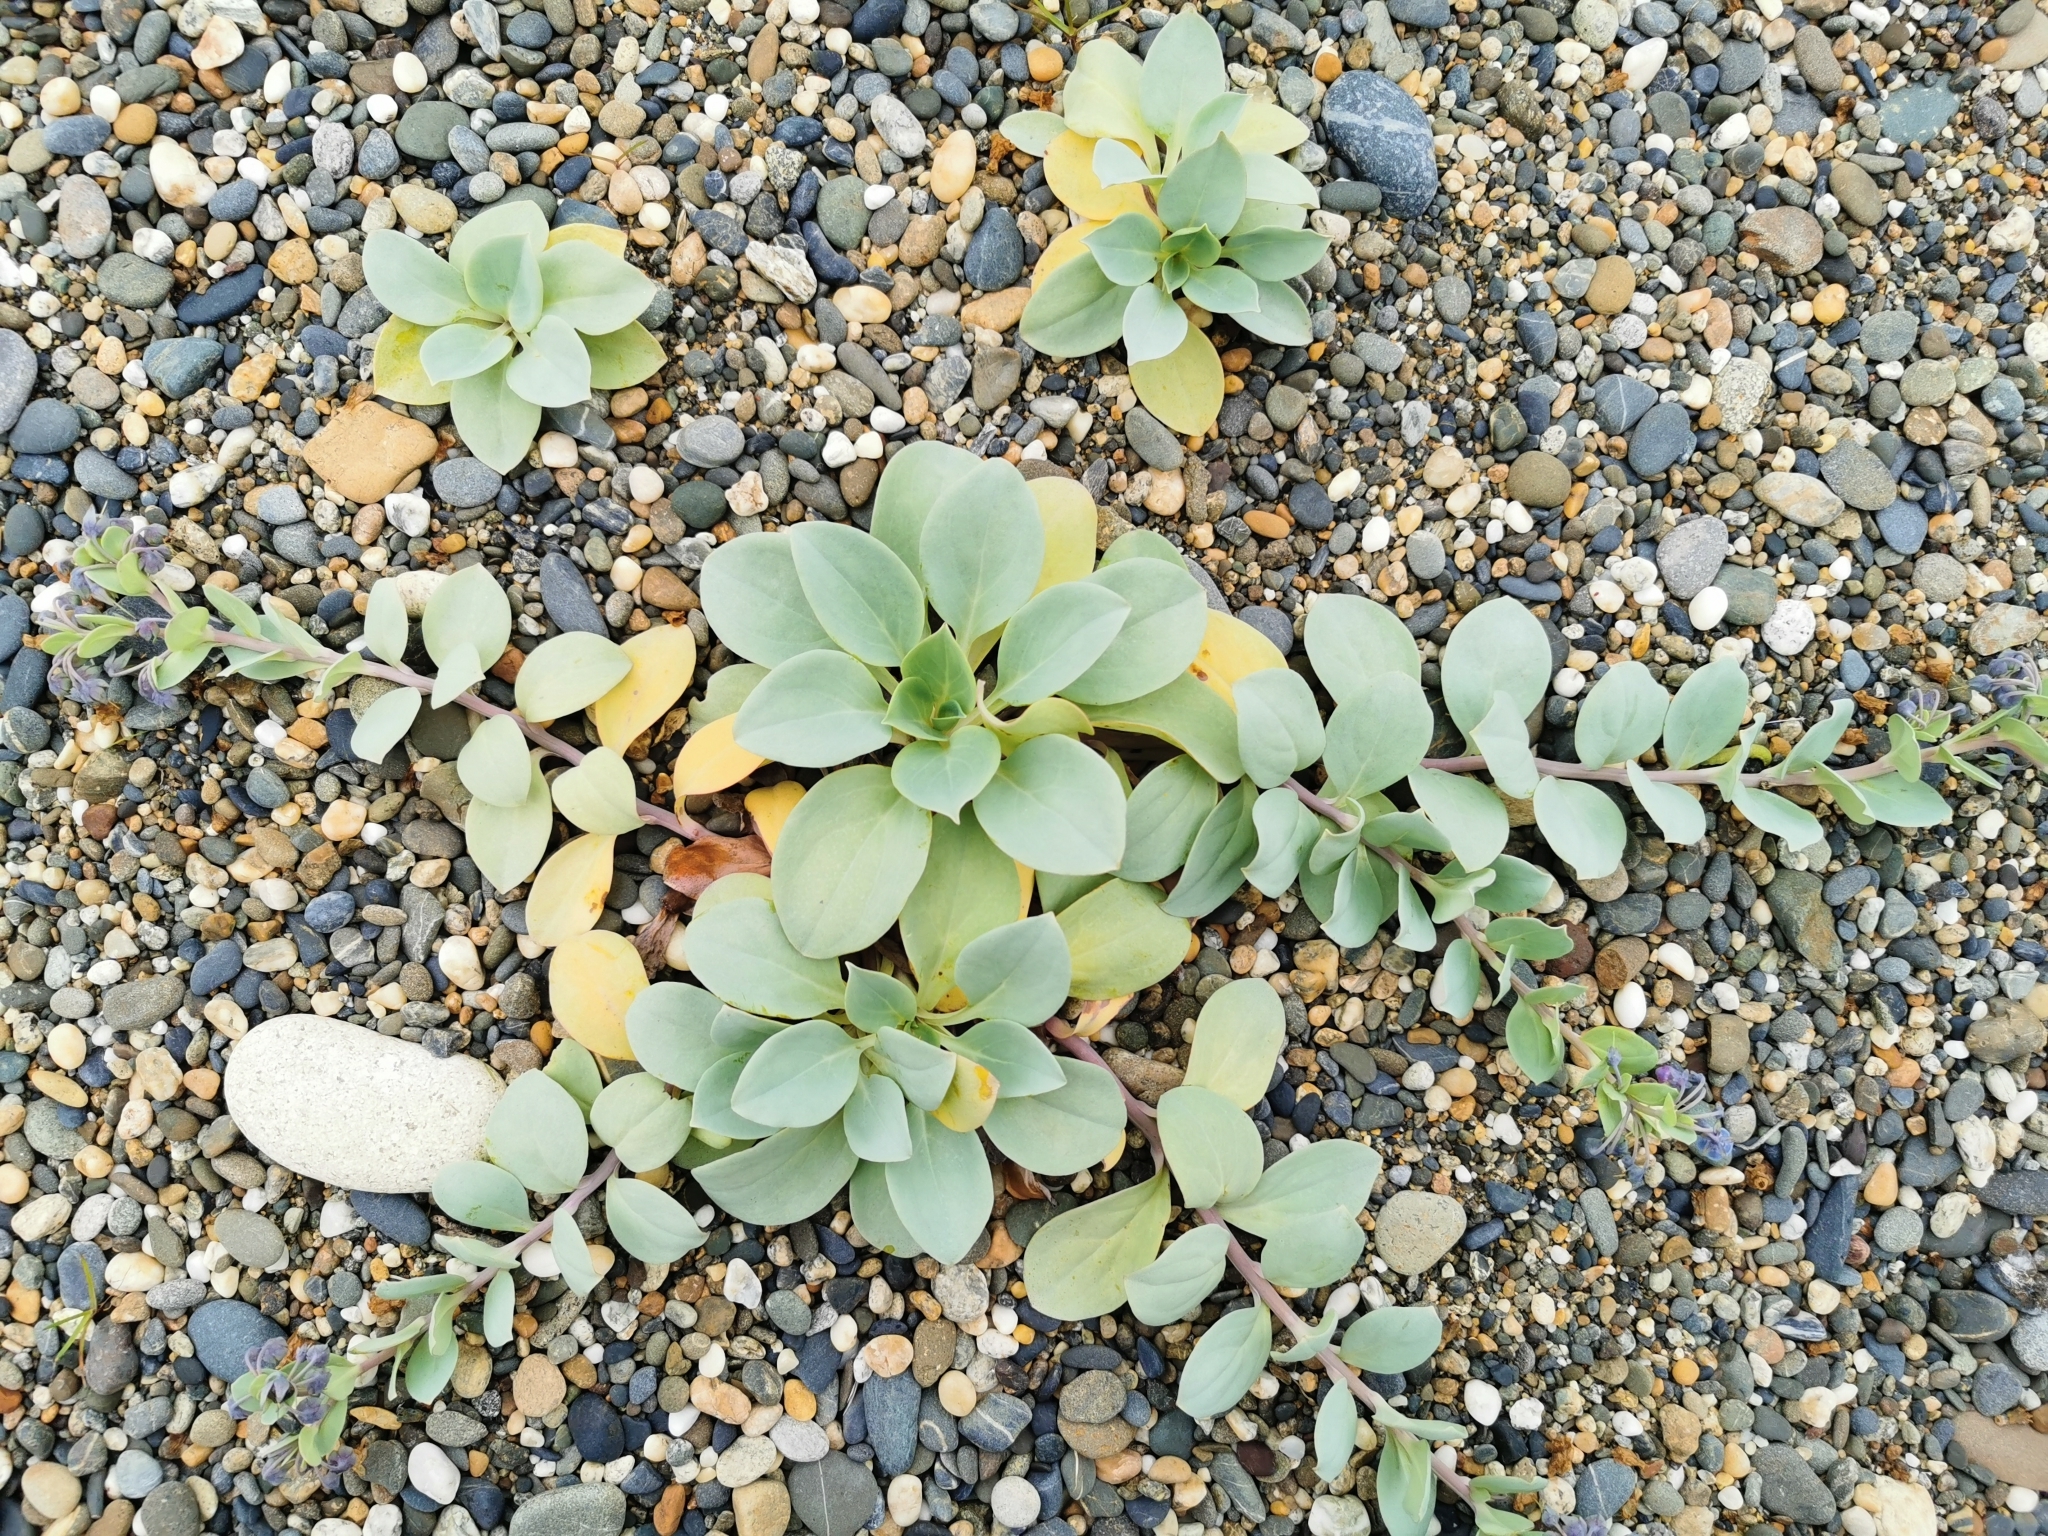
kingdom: Plantae
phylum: Tracheophyta
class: Magnoliopsida
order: Boraginales
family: Boraginaceae
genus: Mertensia
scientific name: Mertensia maritima
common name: Oysterplant
